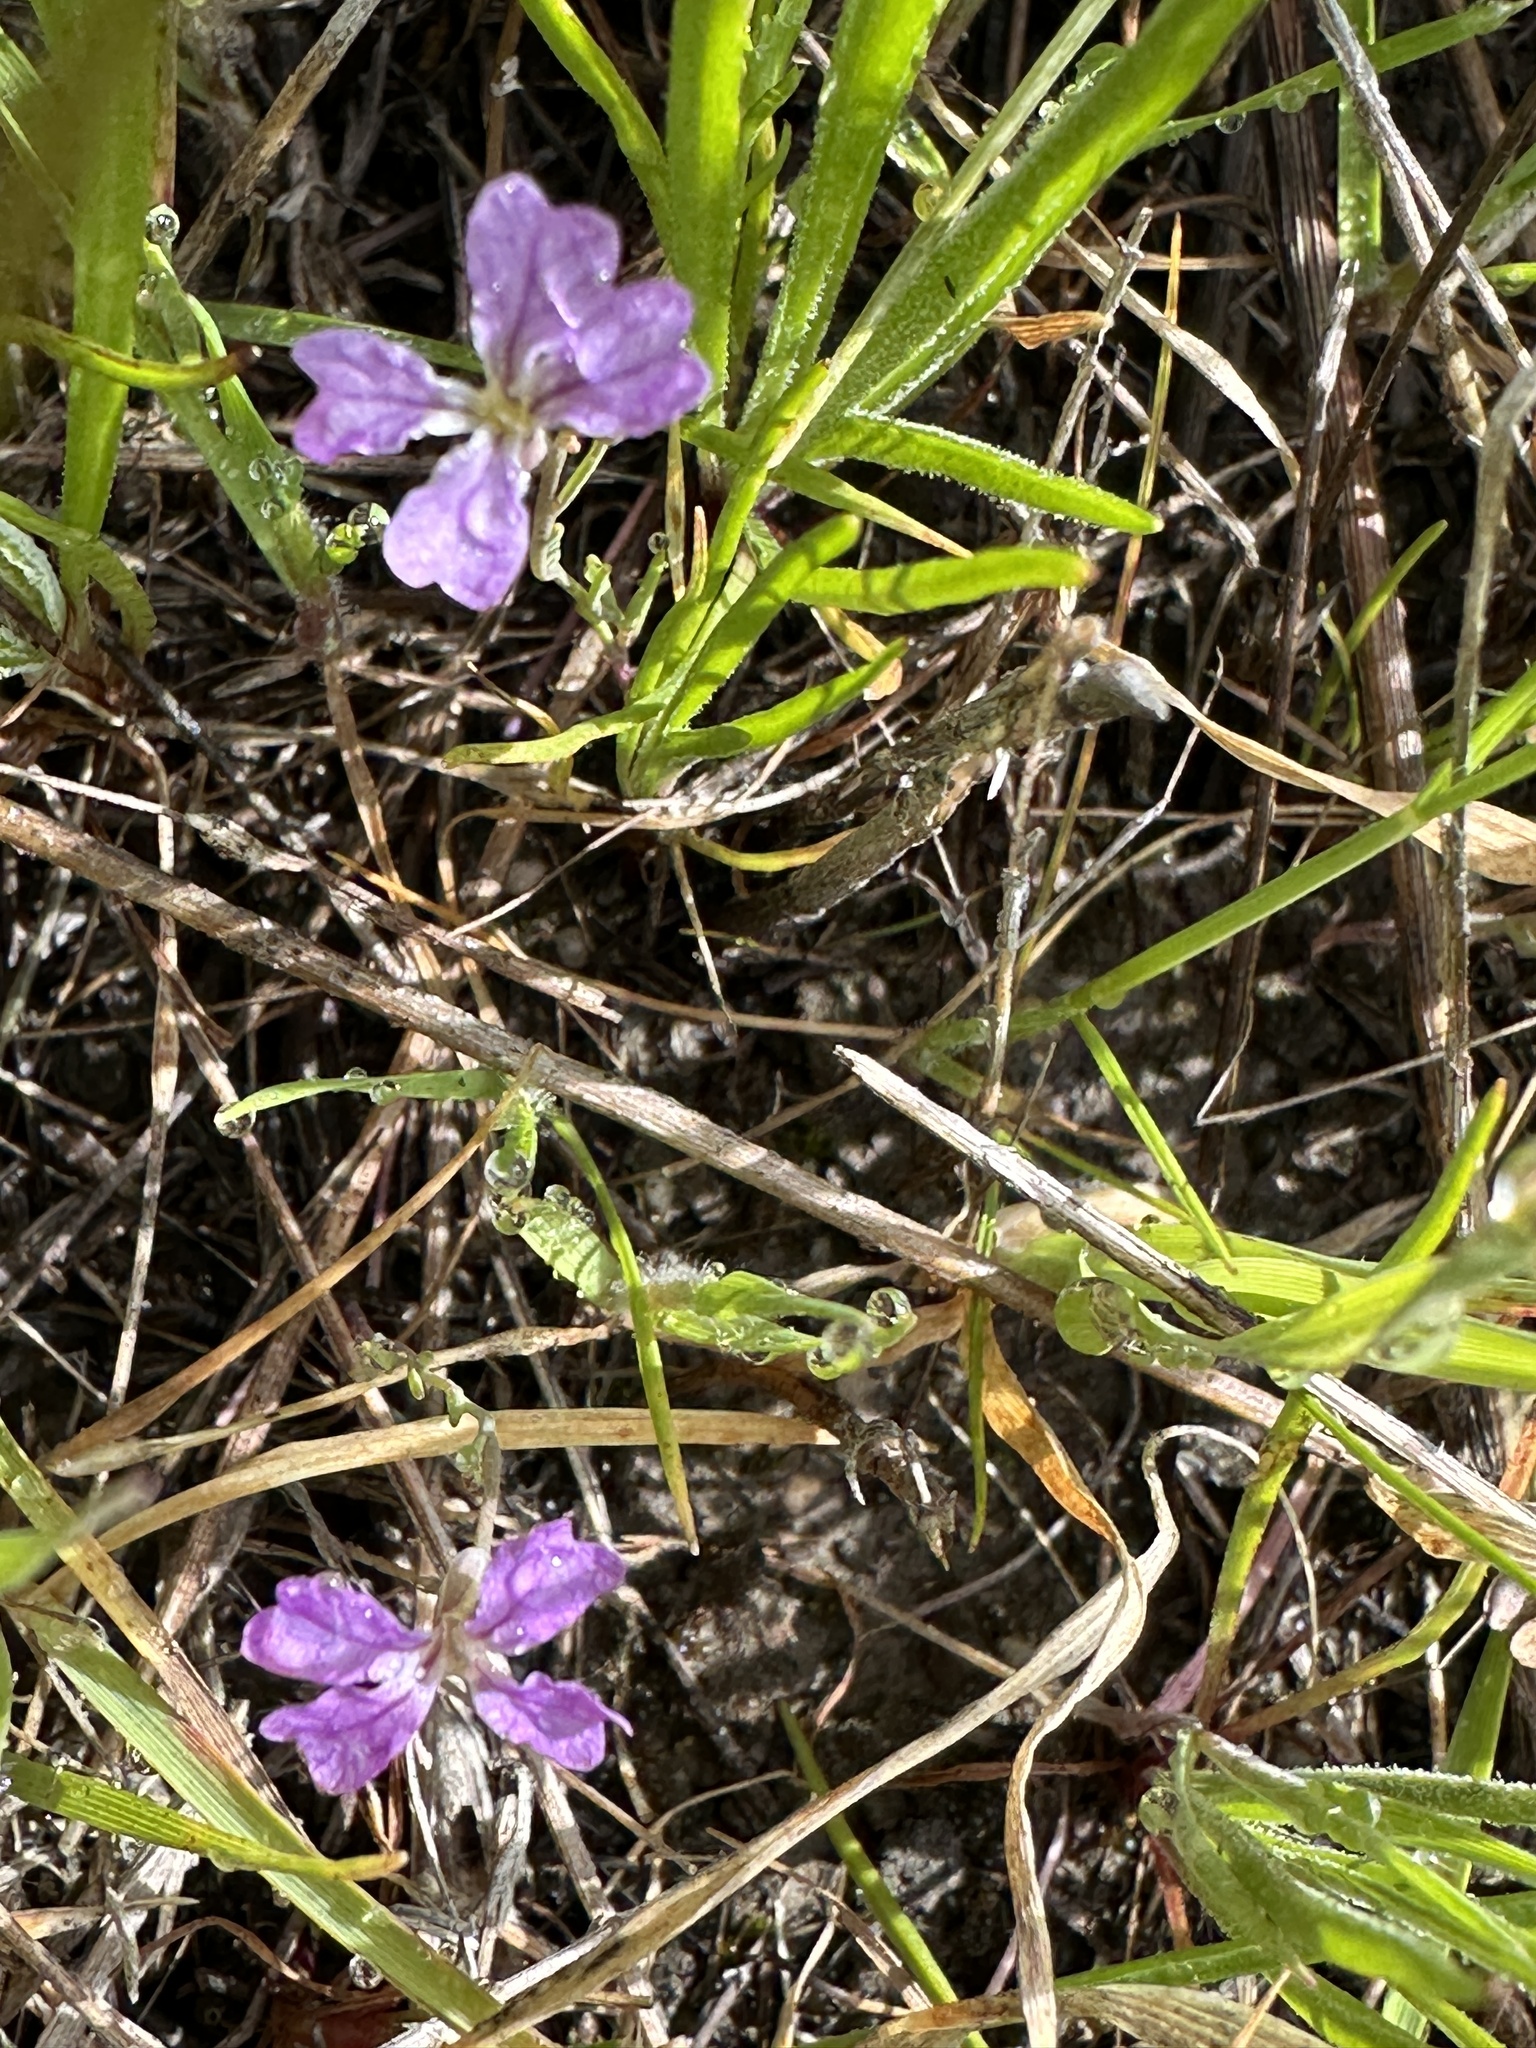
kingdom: Plantae
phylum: Tracheophyta
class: Magnoliopsida
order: Brassicales
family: Brassicaceae
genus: Streptanthus
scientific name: Streptanthus hammittii
